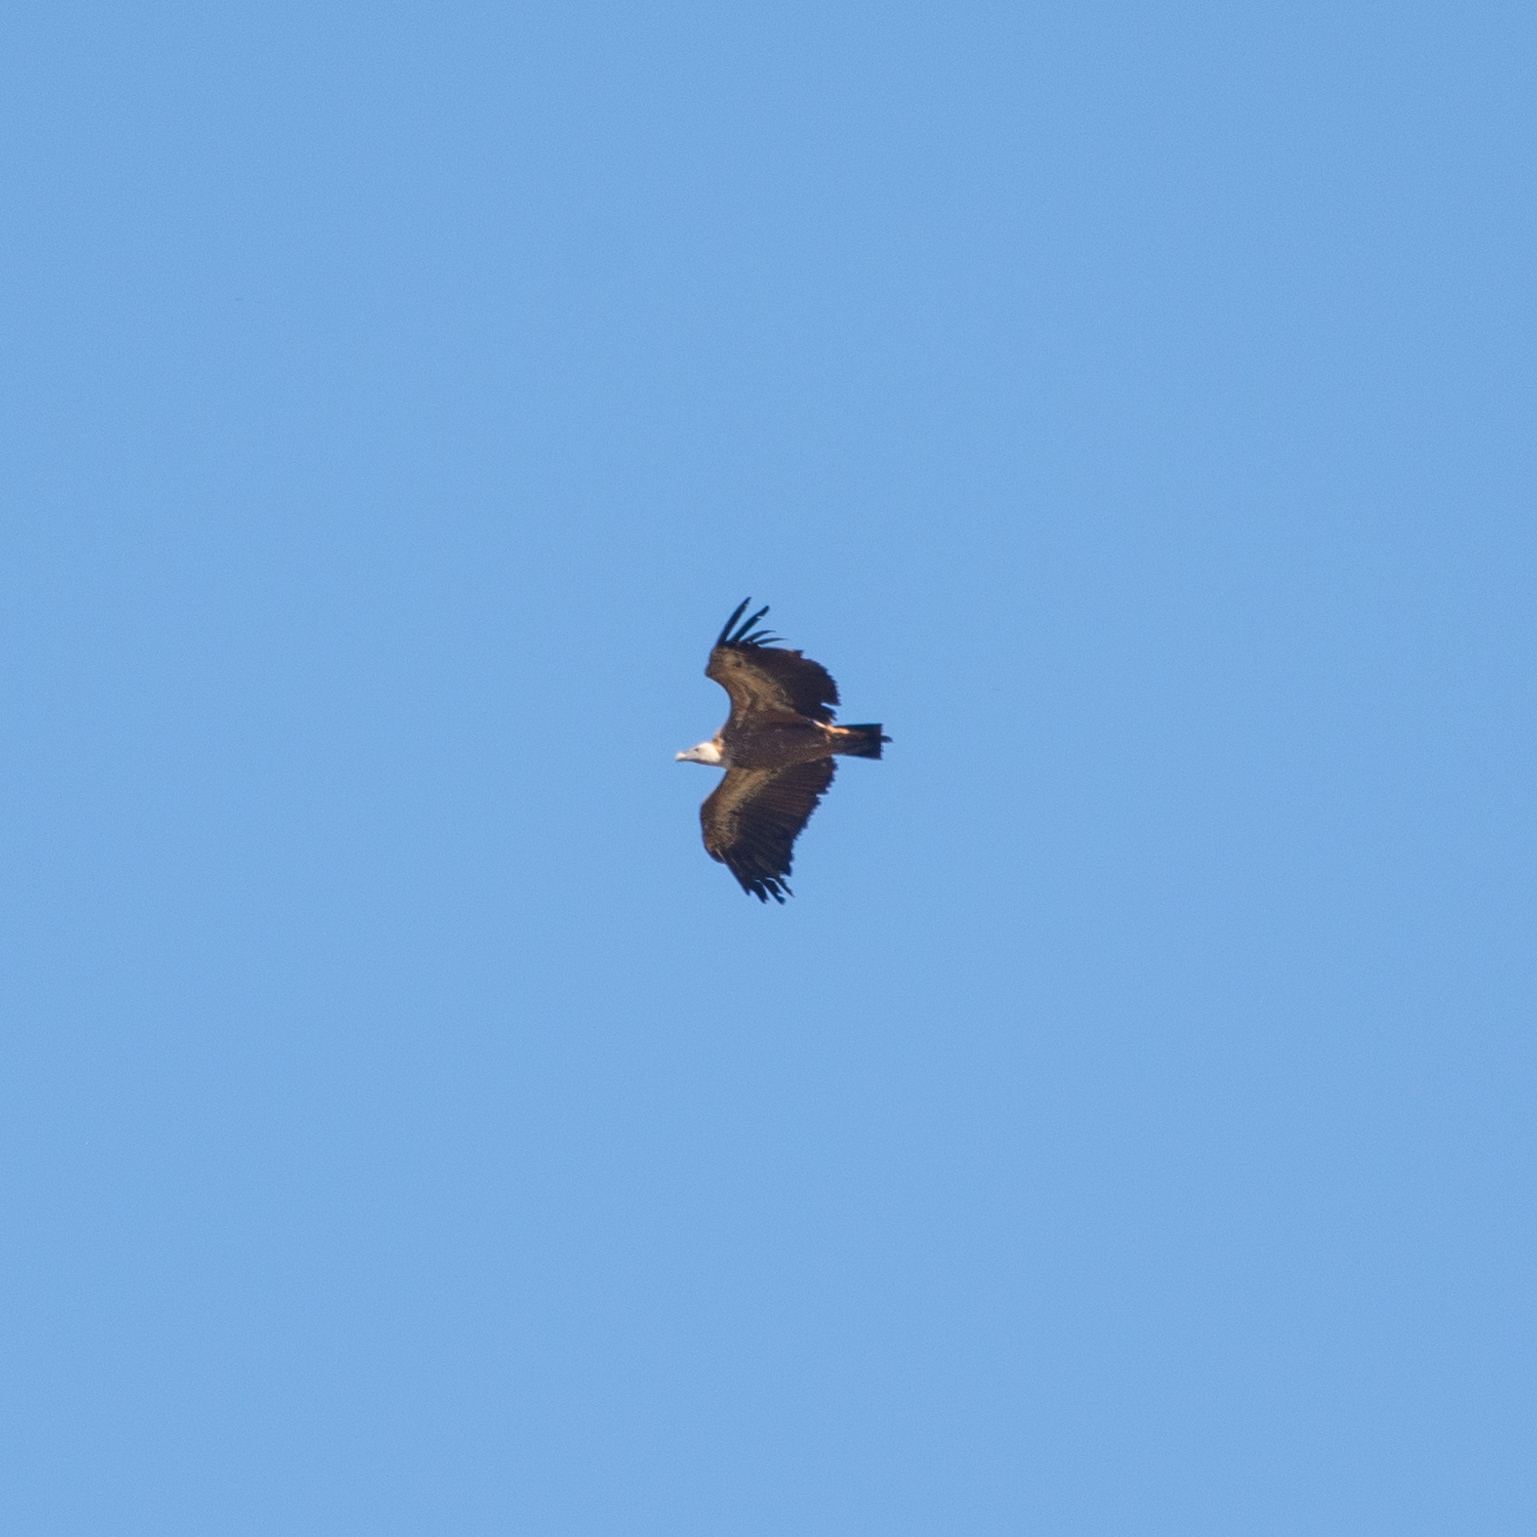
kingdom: Animalia
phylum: Chordata
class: Aves
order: Accipitriformes
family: Accipitridae
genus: Gyps
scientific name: Gyps fulvus
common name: Griffon vulture
